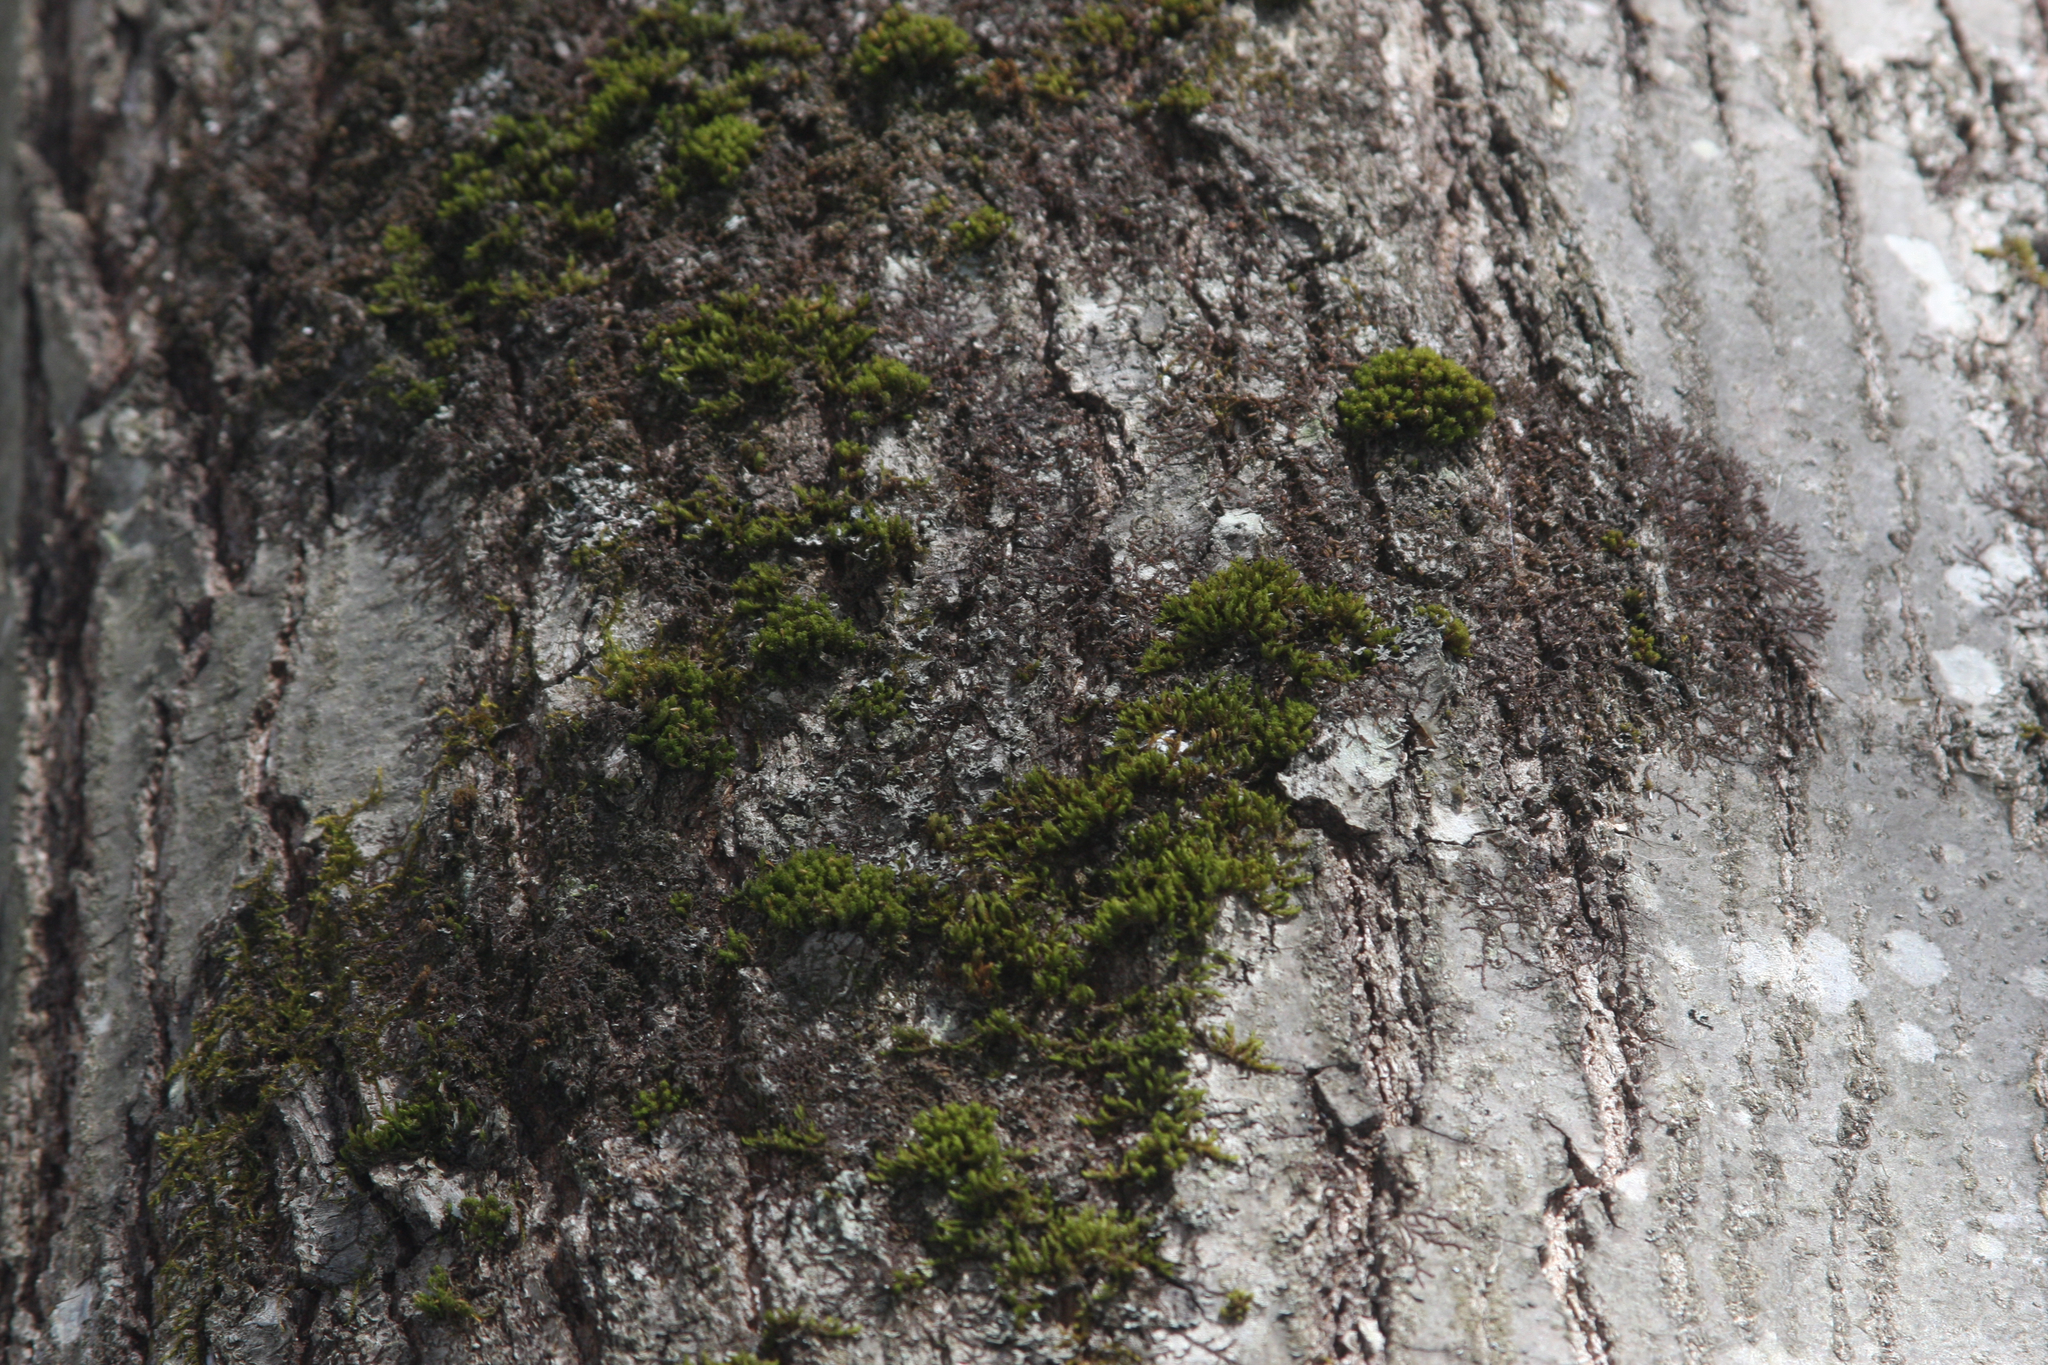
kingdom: Plantae
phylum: Bryophyta
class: Bryopsida
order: Orthotrichales
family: Orthotrichaceae
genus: Ulota
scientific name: Ulota crispa
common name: Crisped pincushion moss
